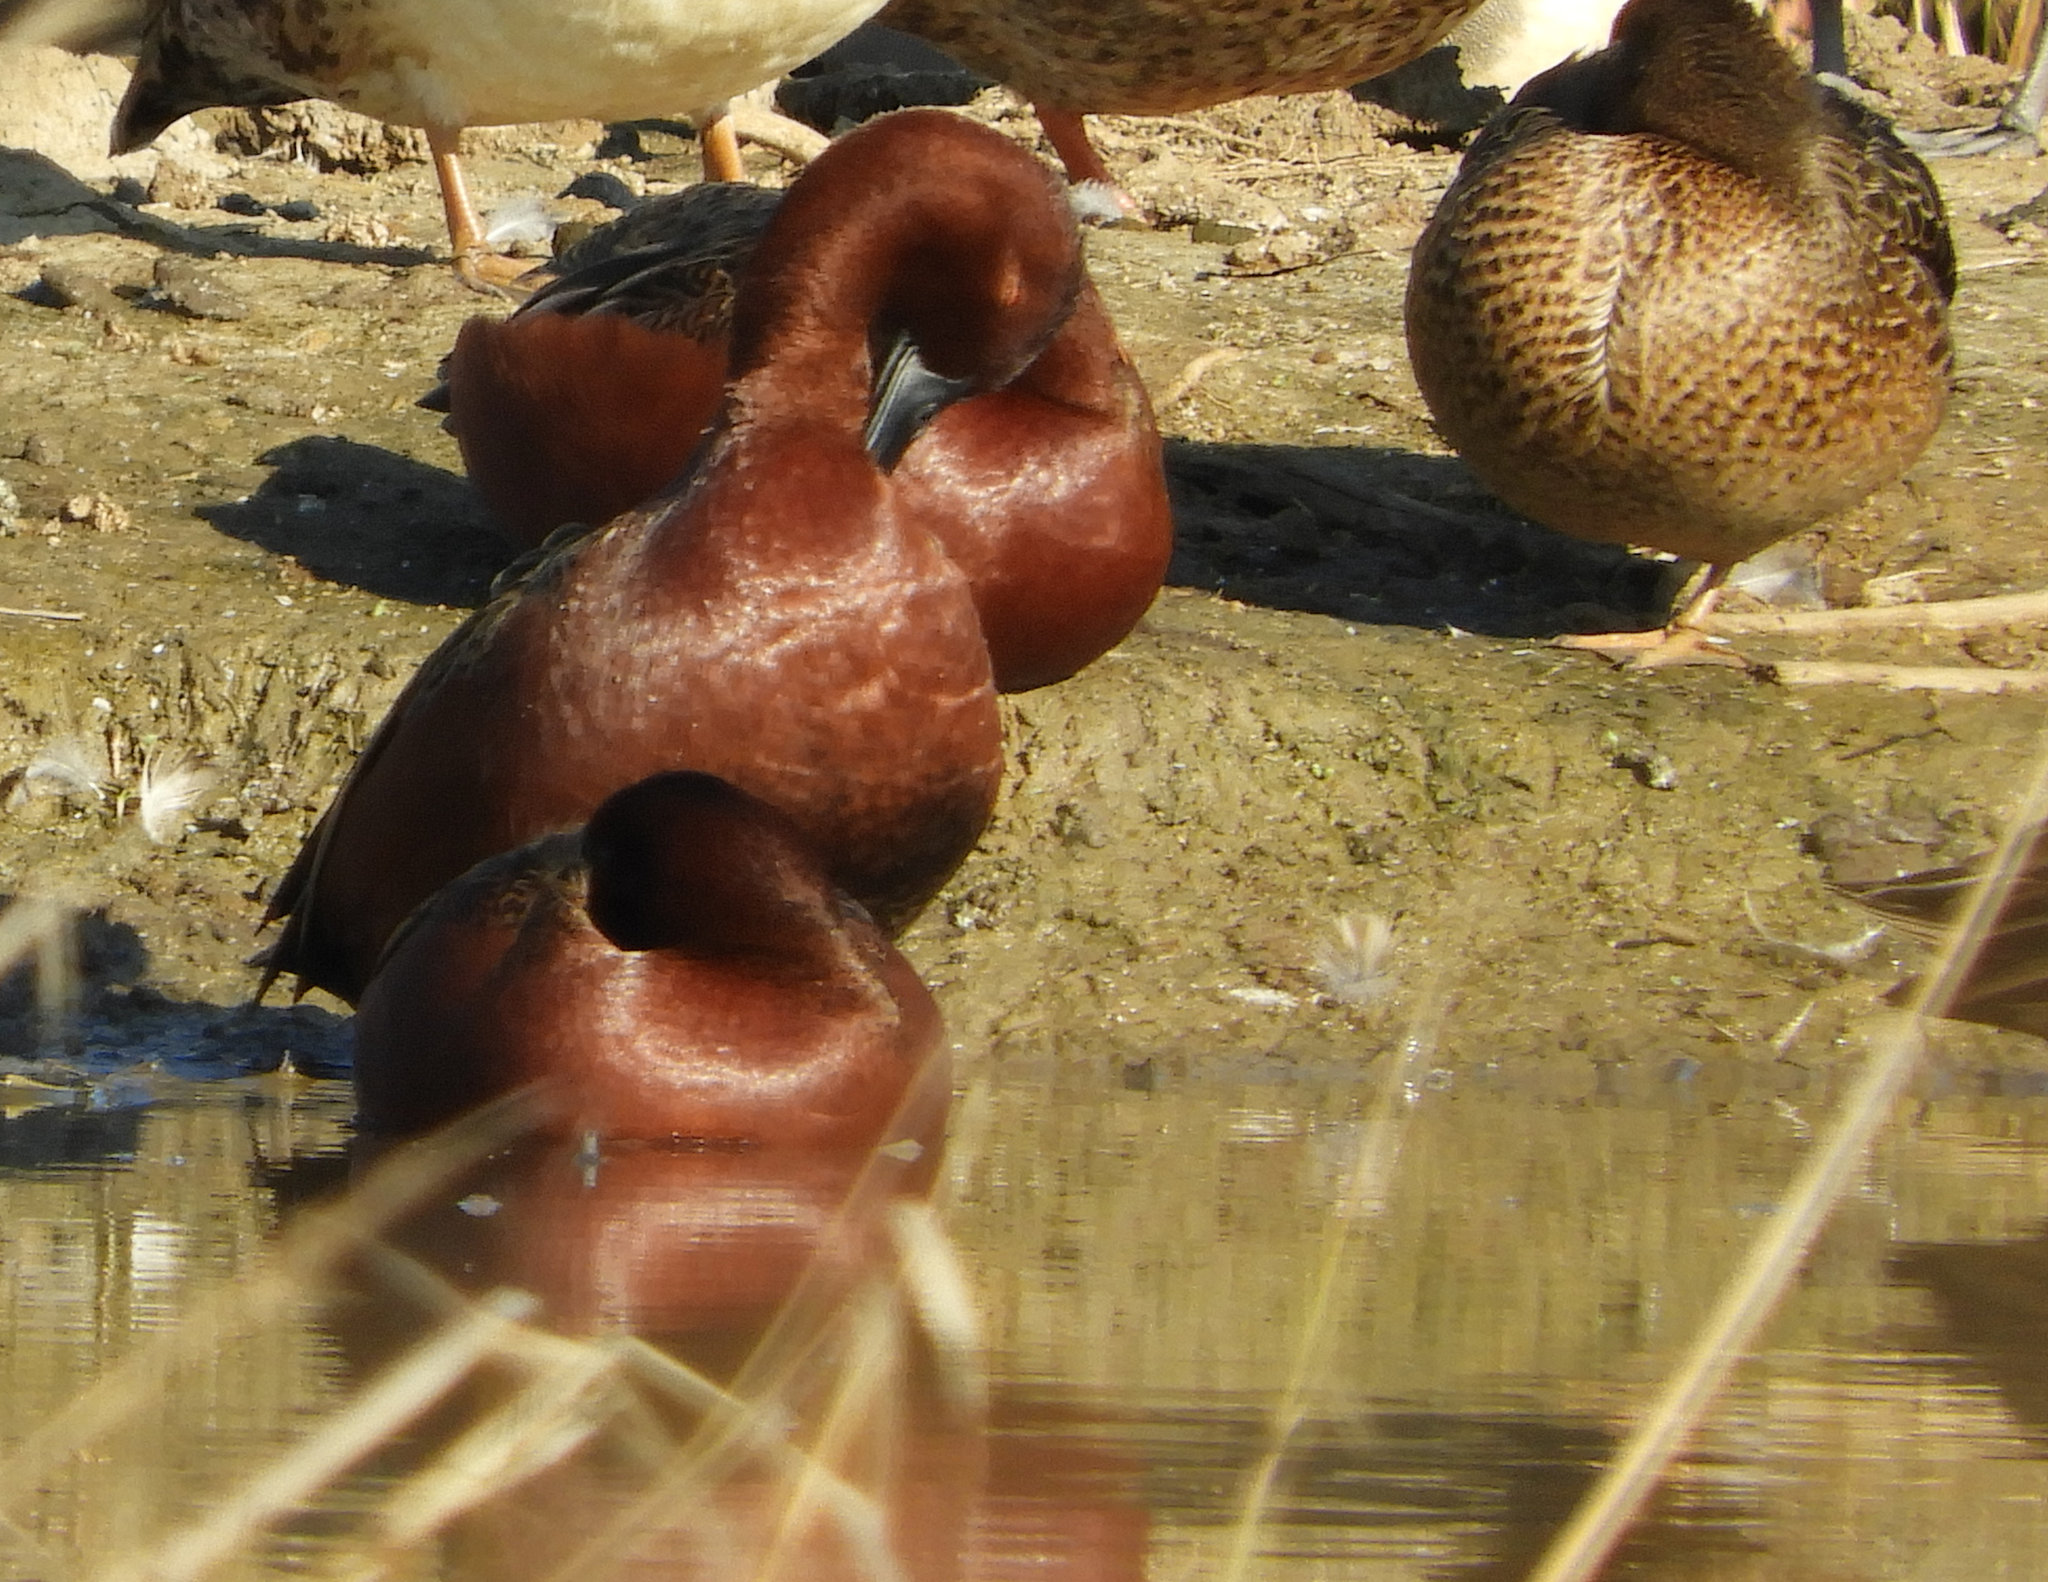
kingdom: Animalia
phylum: Chordata
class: Aves
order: Anseriformes
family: Anatidae
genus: Spatula
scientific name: Spatula cyanoptera
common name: Cinnamon teal
